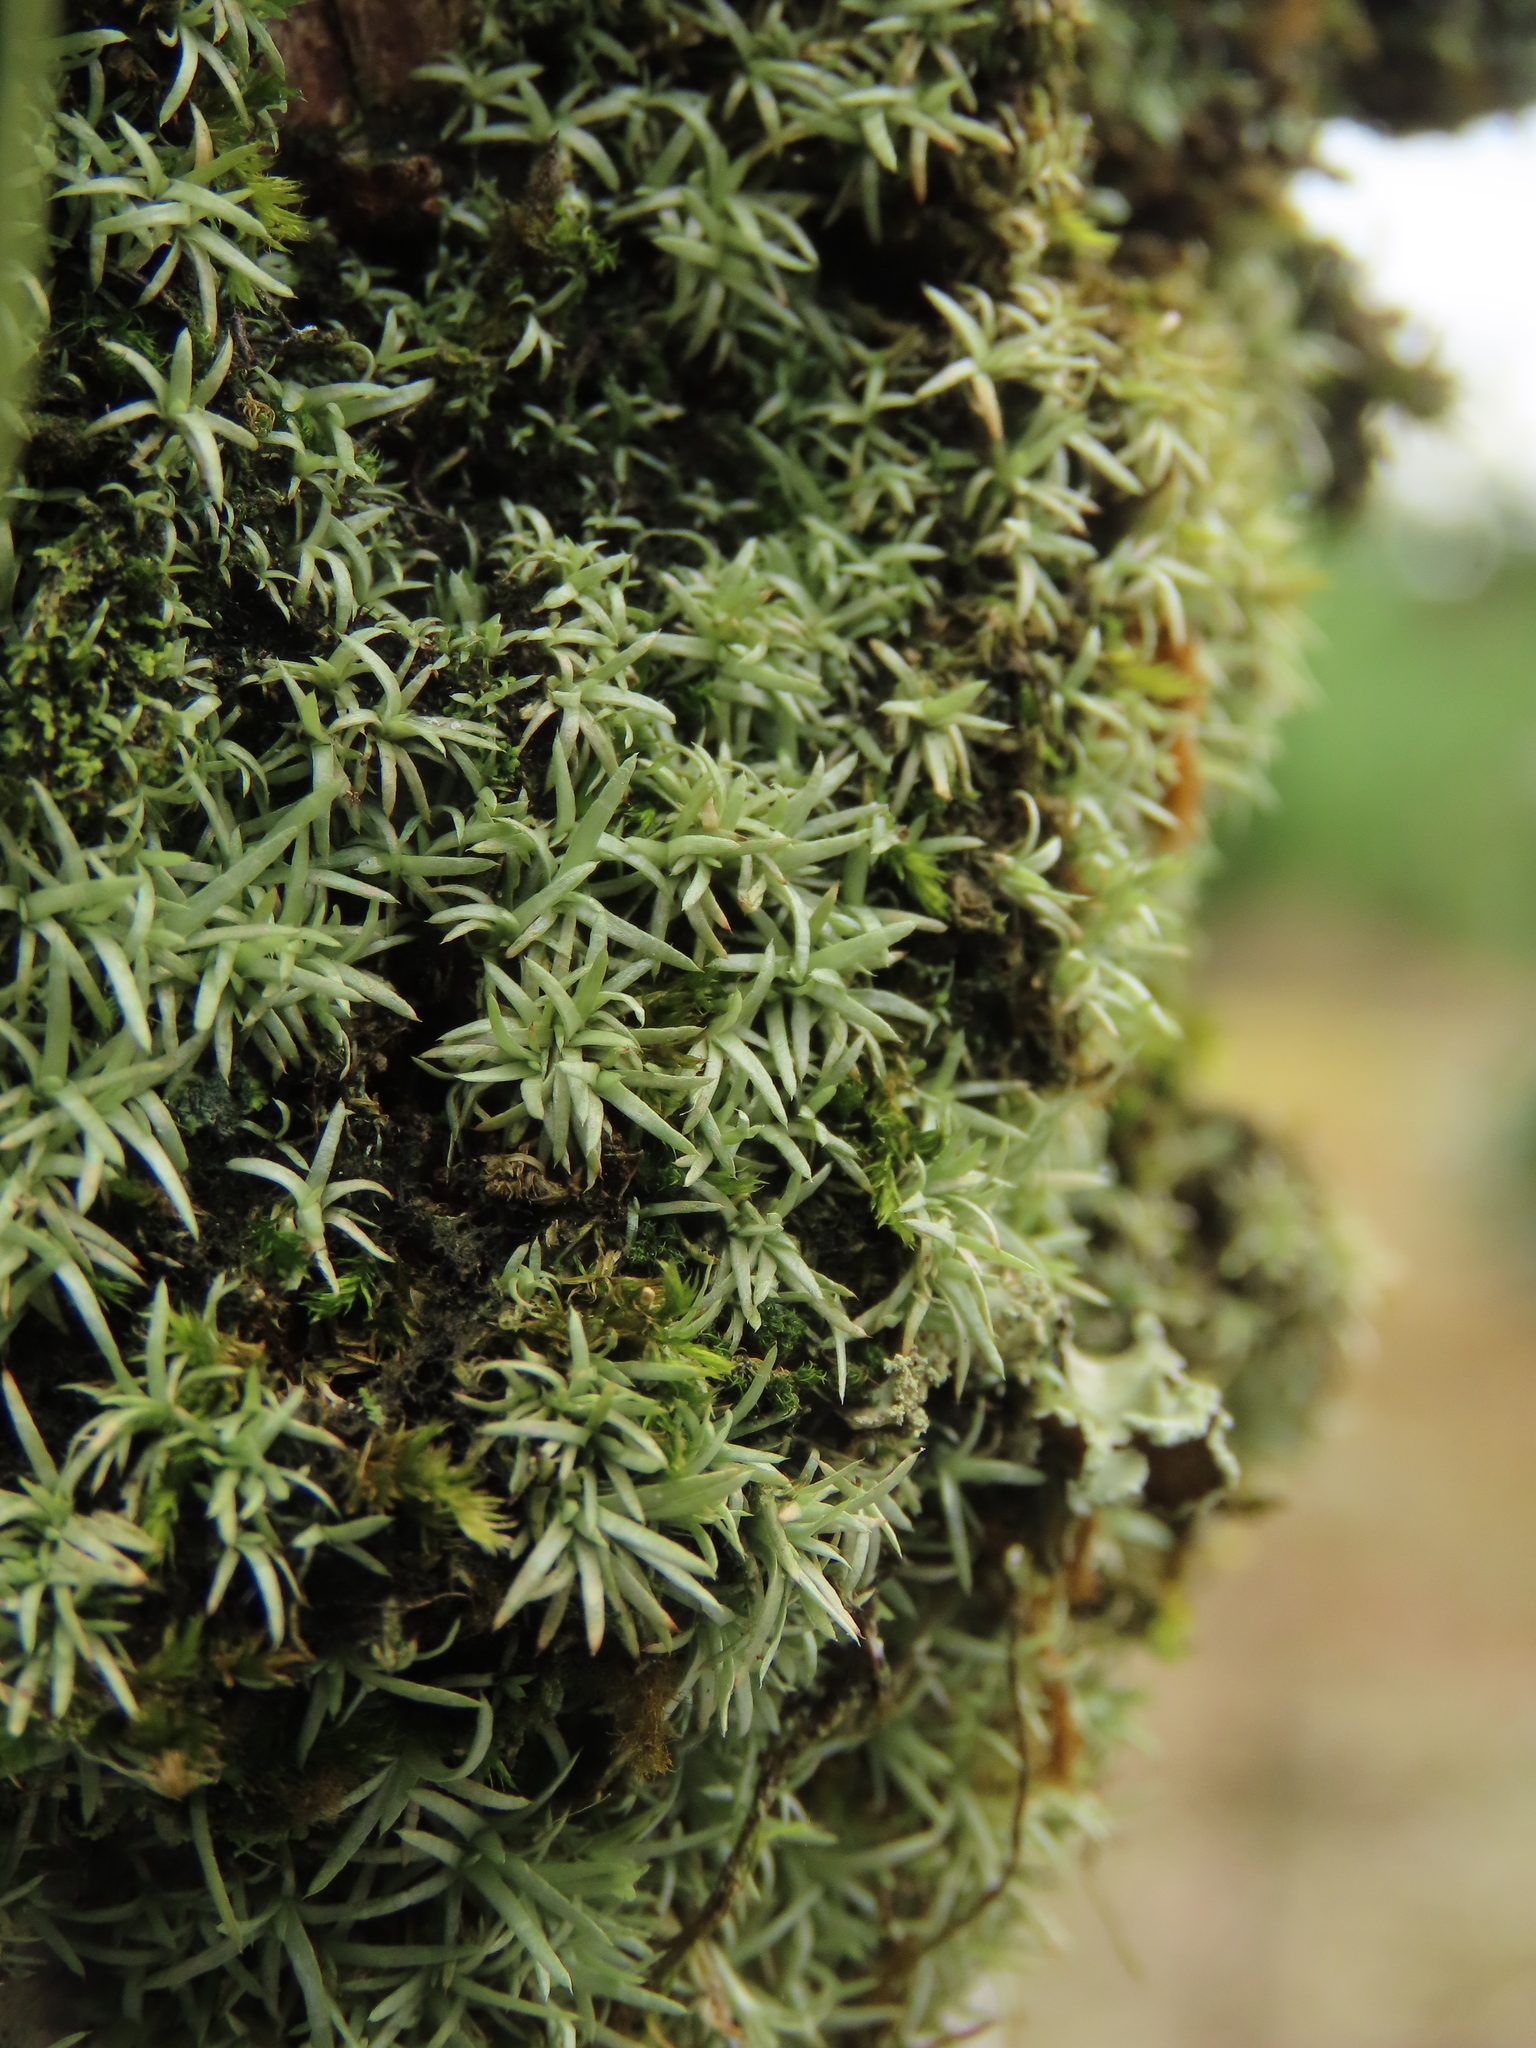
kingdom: Plantae
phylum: Bryophyta
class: Bryopsida
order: Dicranales
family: Octoblepharaceae
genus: Octoblepharum
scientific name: Octoblepharum albidum
